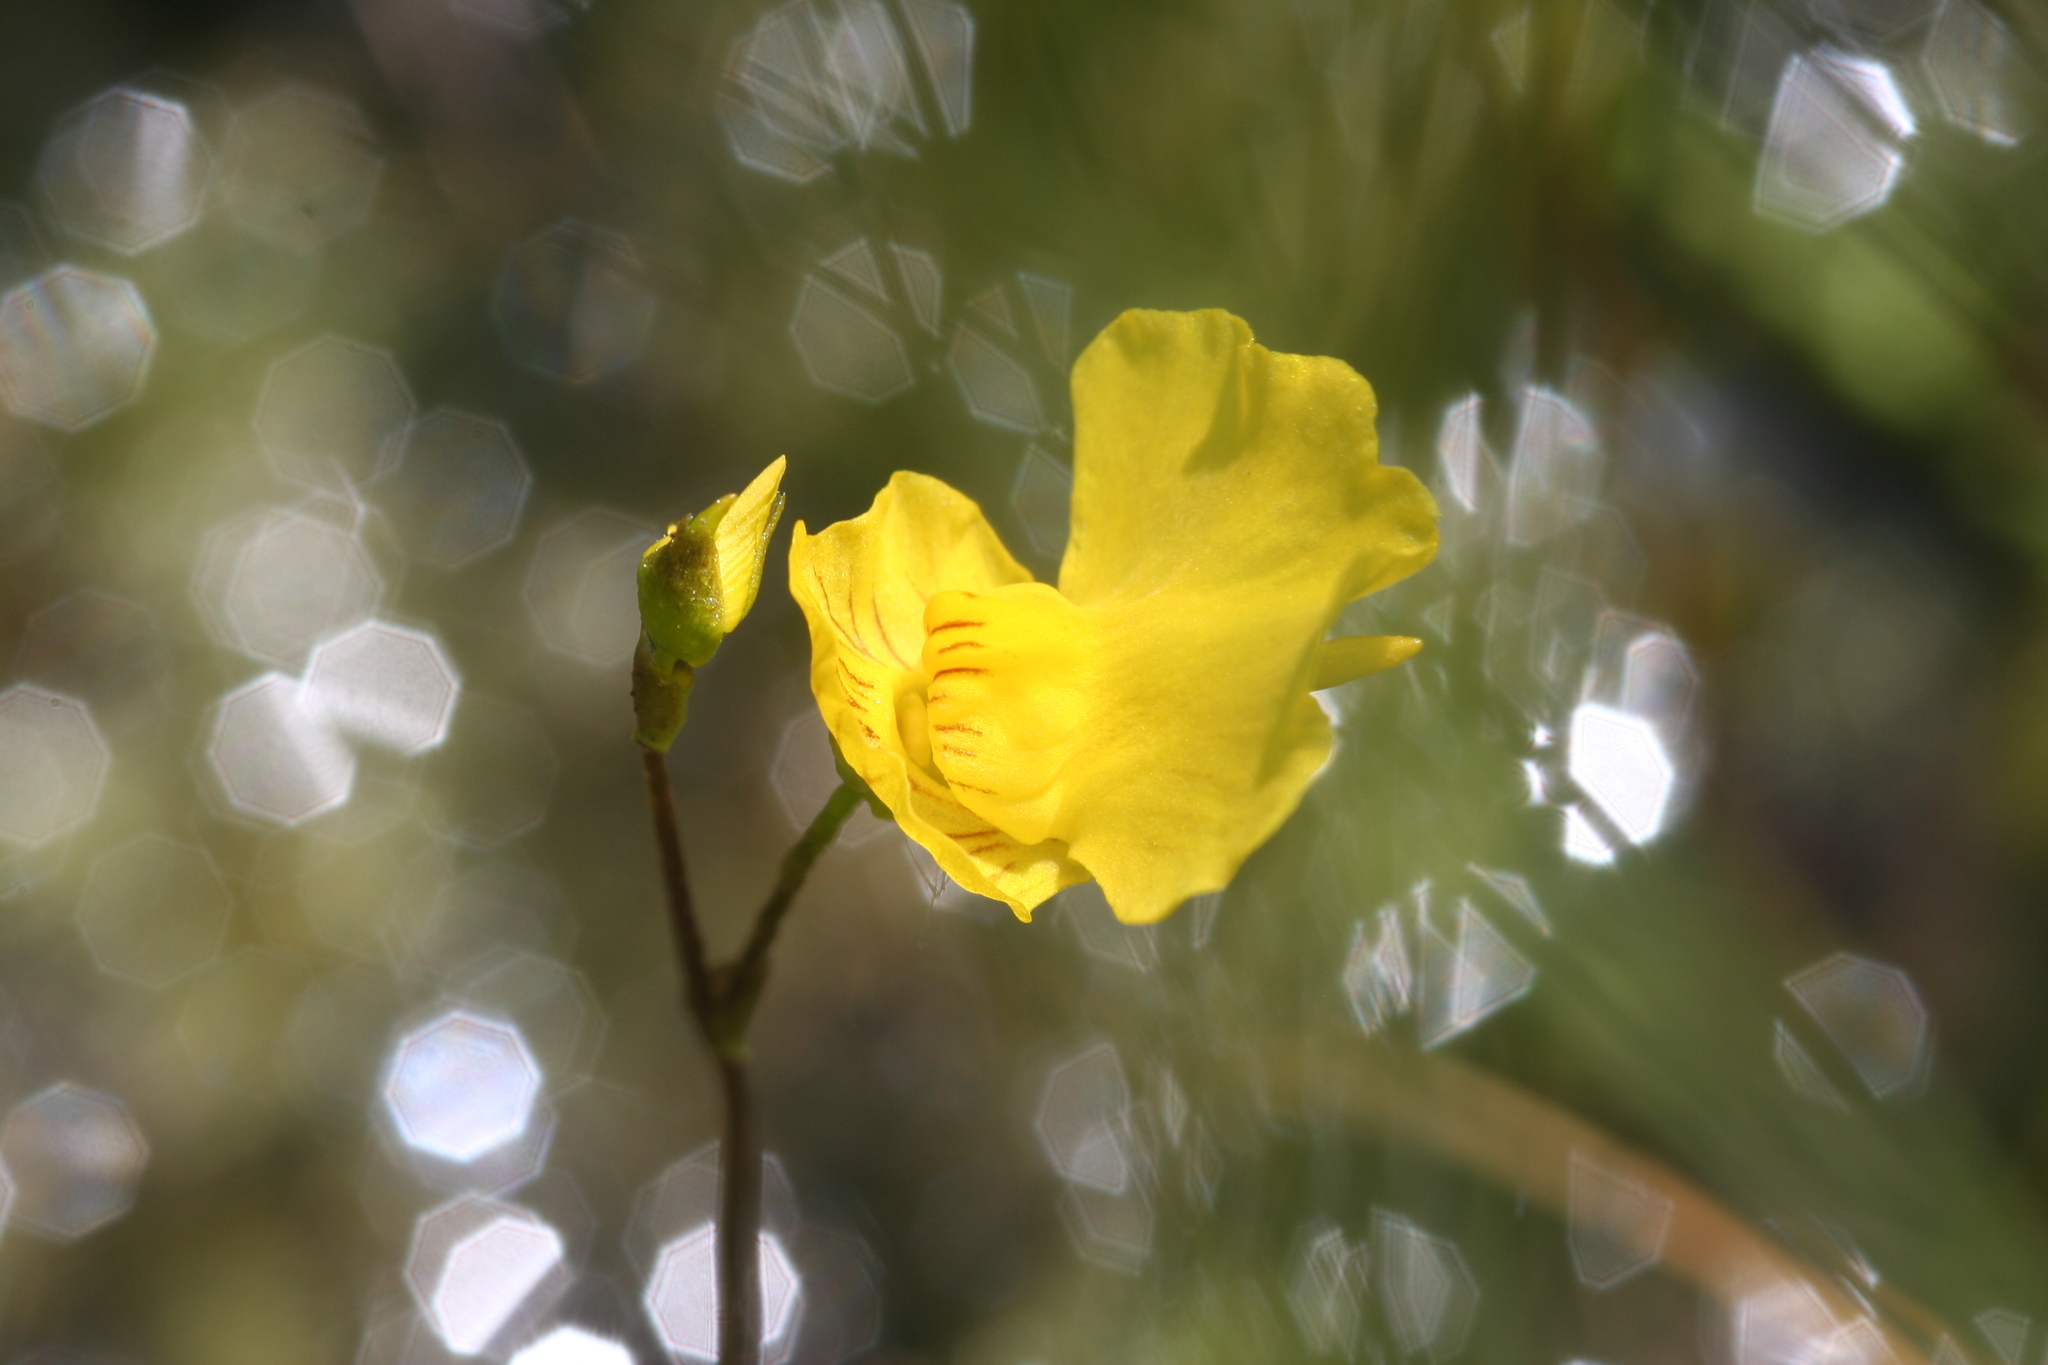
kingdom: Plantae
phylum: Tracheophyta
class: Magnoliopsida
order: Lamiales
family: Lentibulariaceae
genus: Utricularia
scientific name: Utricularia intermedia
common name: Intermediate bladderwort
